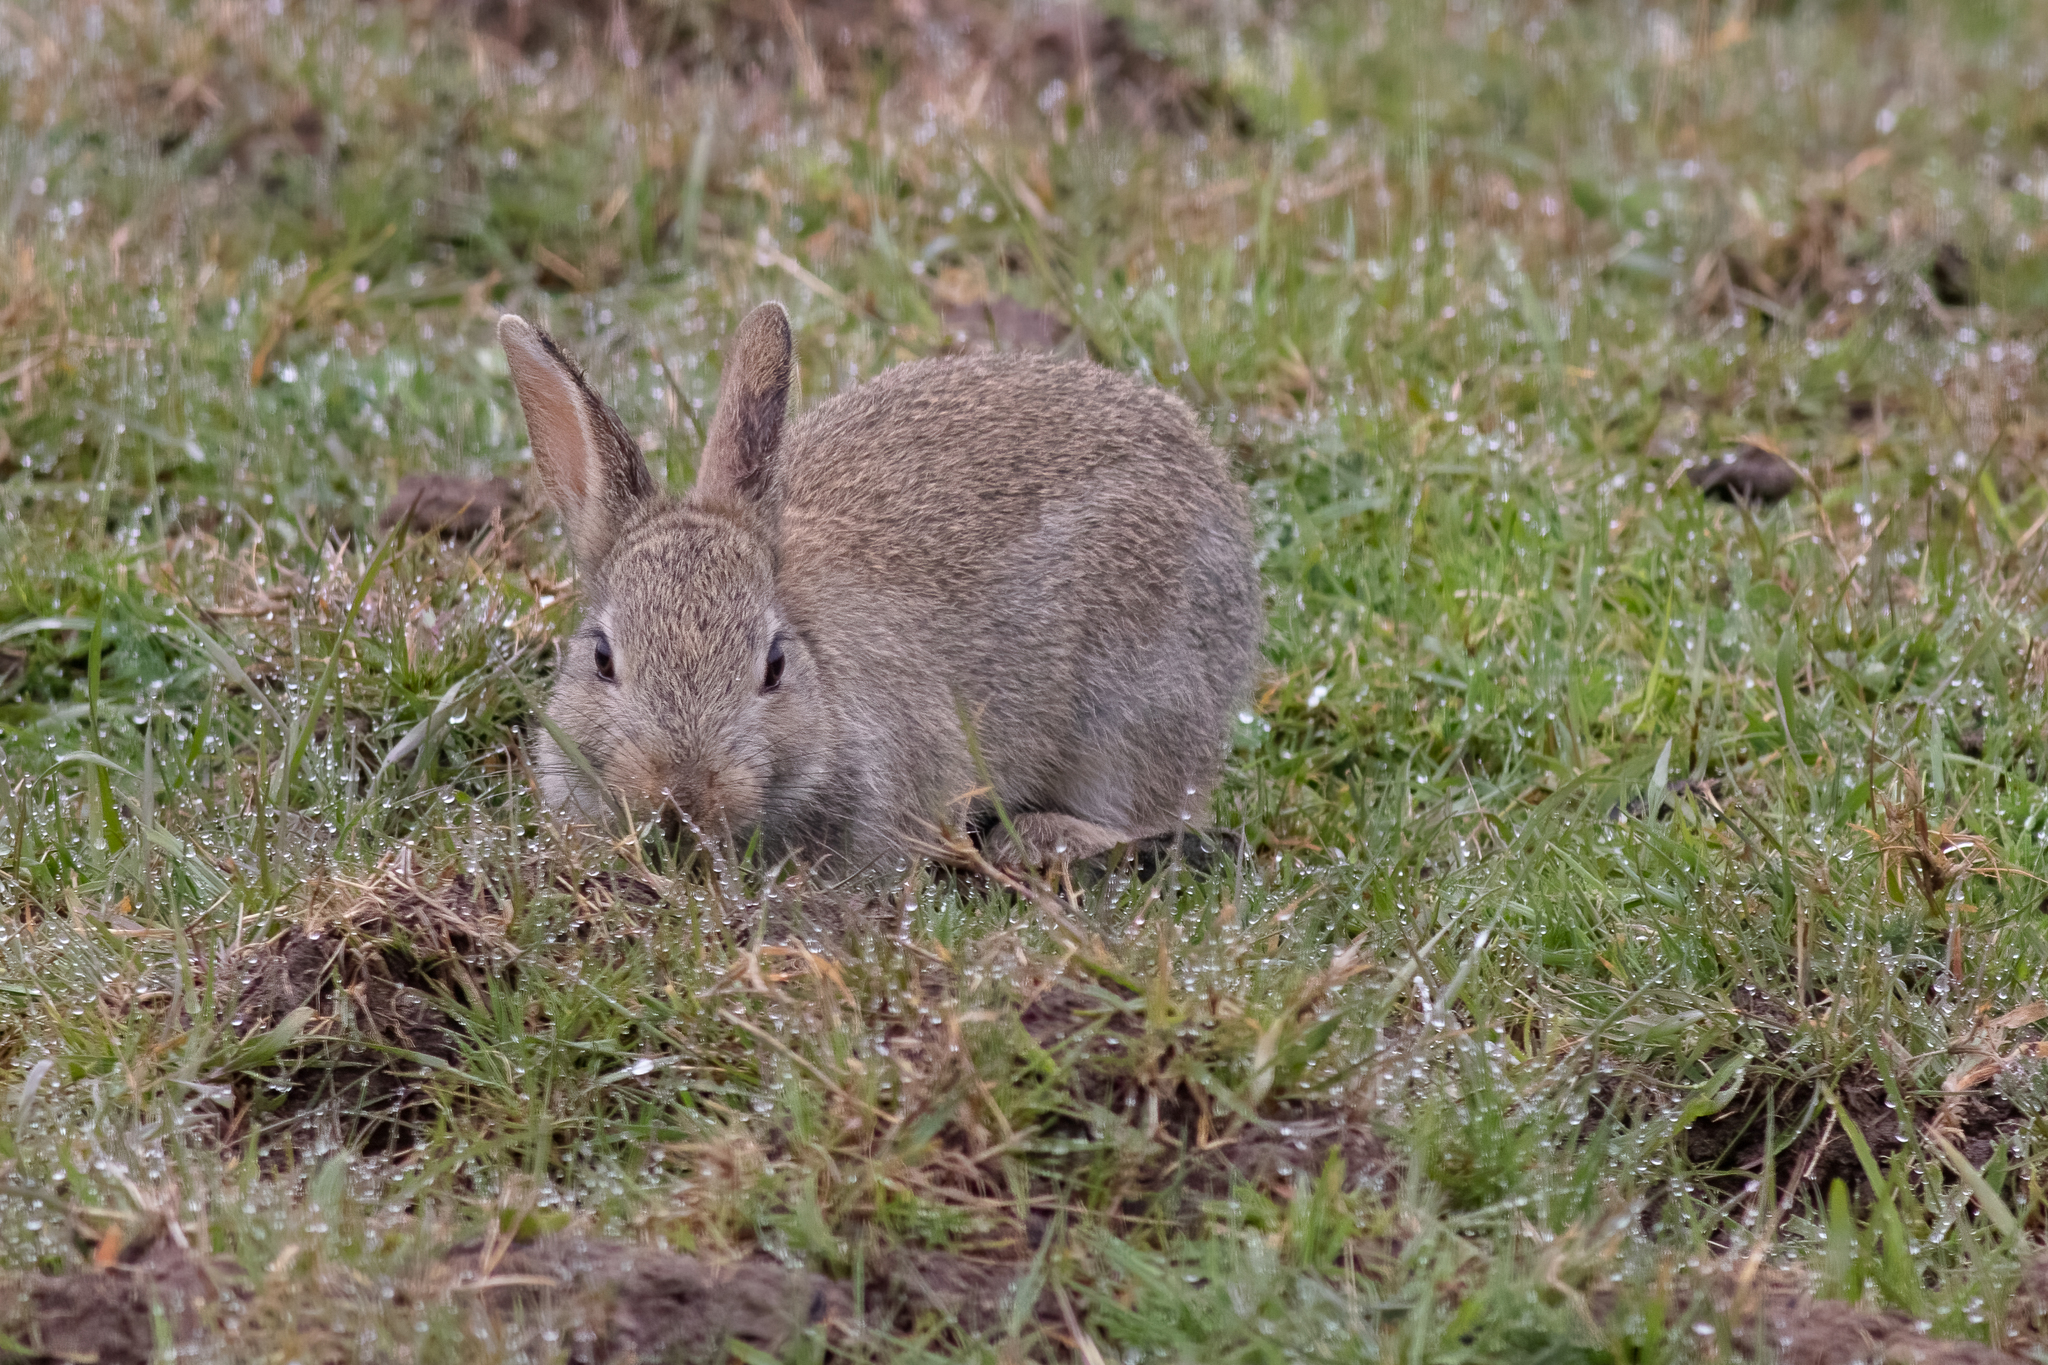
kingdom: Animalia
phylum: Chordata
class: Mammalia
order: Lagomorpha
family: Leporidae
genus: Oryctolagus
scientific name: Oryctolagus cuniculus
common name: European rabbit
